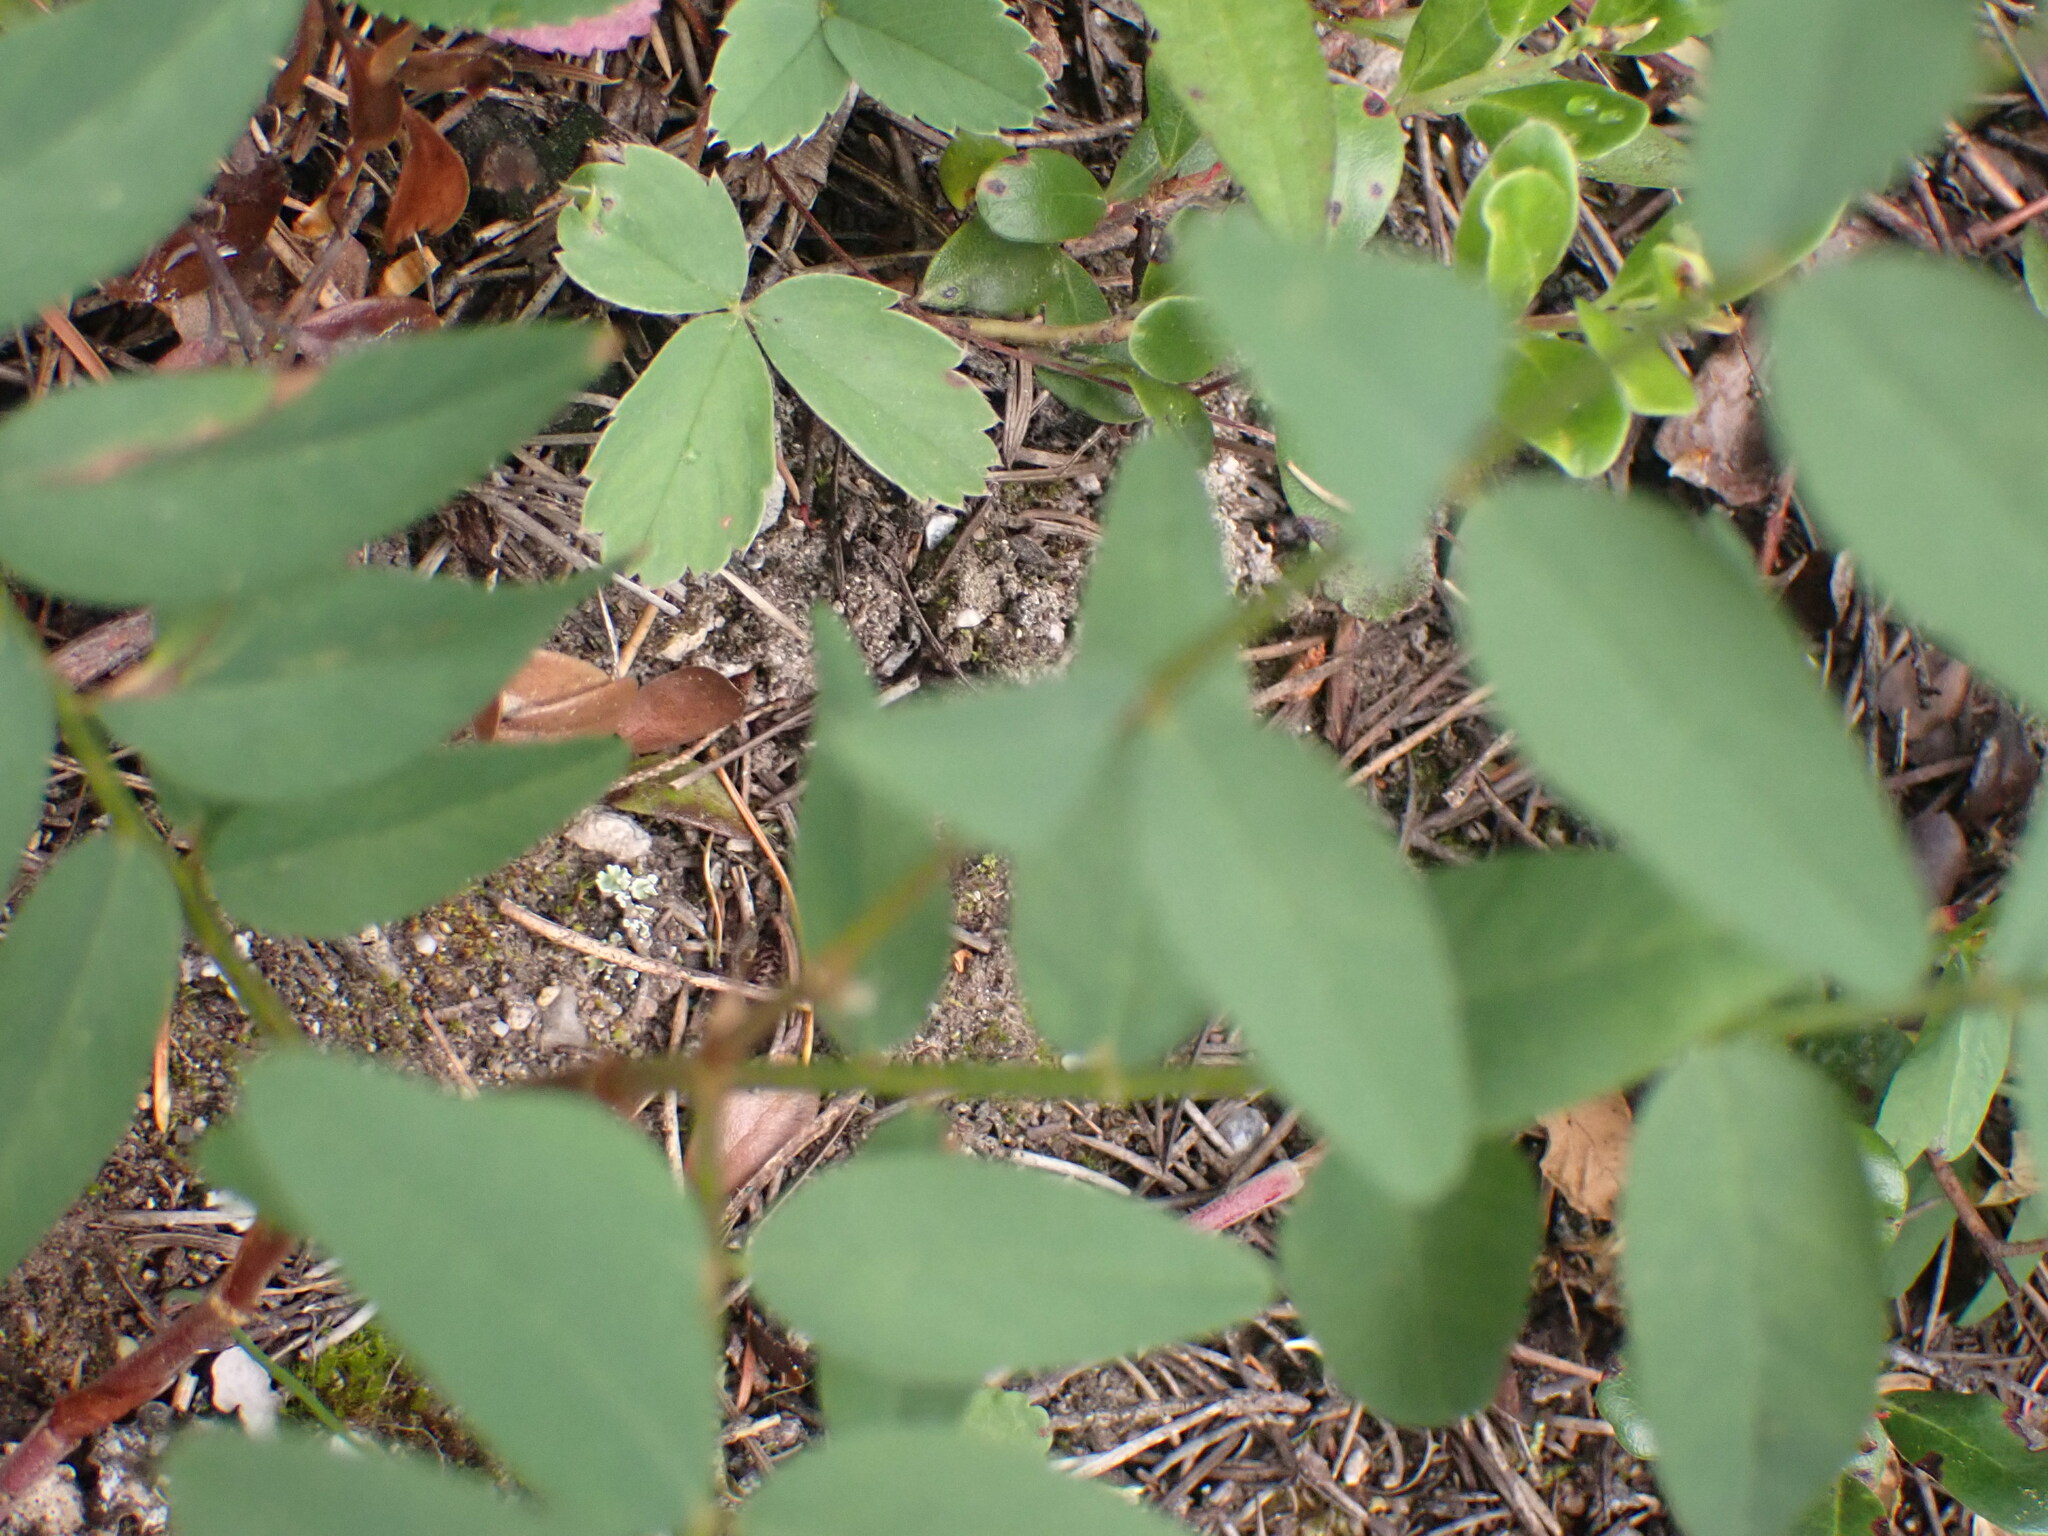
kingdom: Plantae
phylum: Tracheophyta
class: Magnoliopsida
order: Fabales
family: Fabaceae
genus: Hedysarum
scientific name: Hedysarum sulphurescens
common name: Sulphur hedysarum
